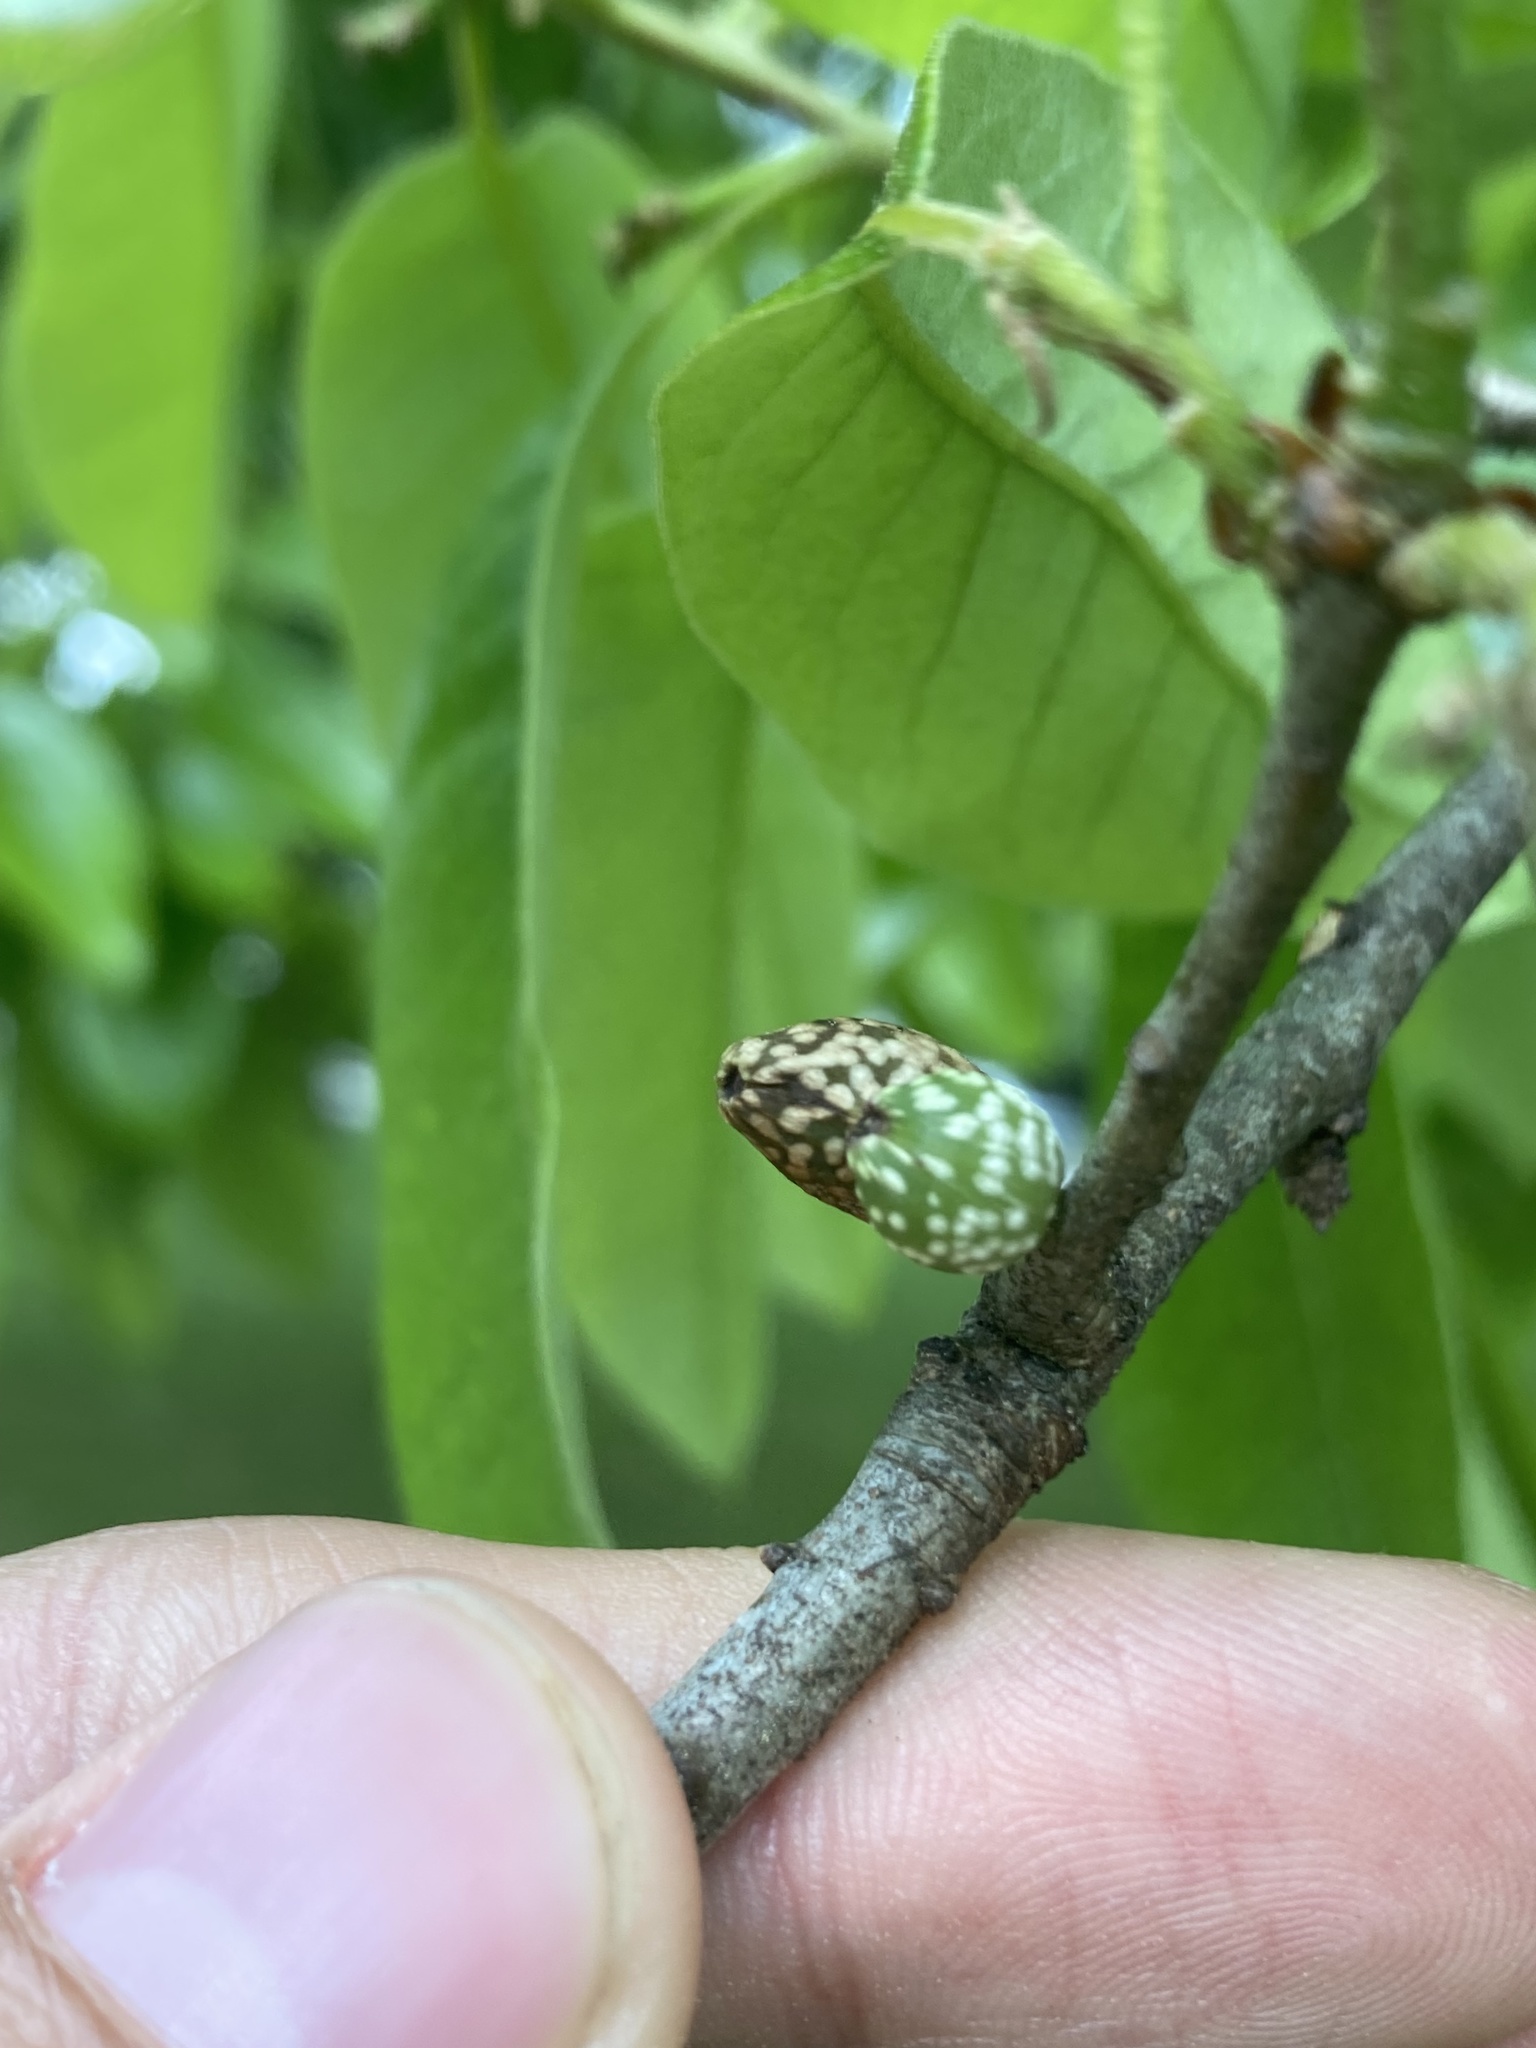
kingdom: Animalia
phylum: Arthropoda
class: Insecta
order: Hymenoptera
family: Cynipidae
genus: Amphibolips
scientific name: Amphibolips
